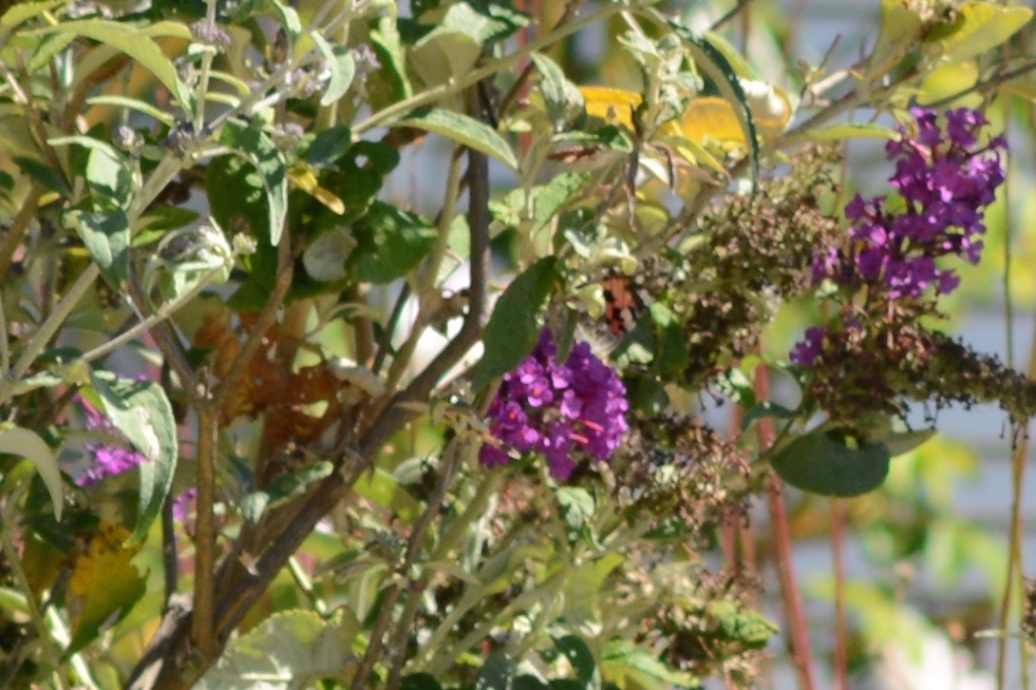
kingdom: Animalia
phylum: Arthropoda
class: Insecta
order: Lepidoptera
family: Nymphalidae
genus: Vanessa
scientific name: Vanessa cardui
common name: Painted lady
